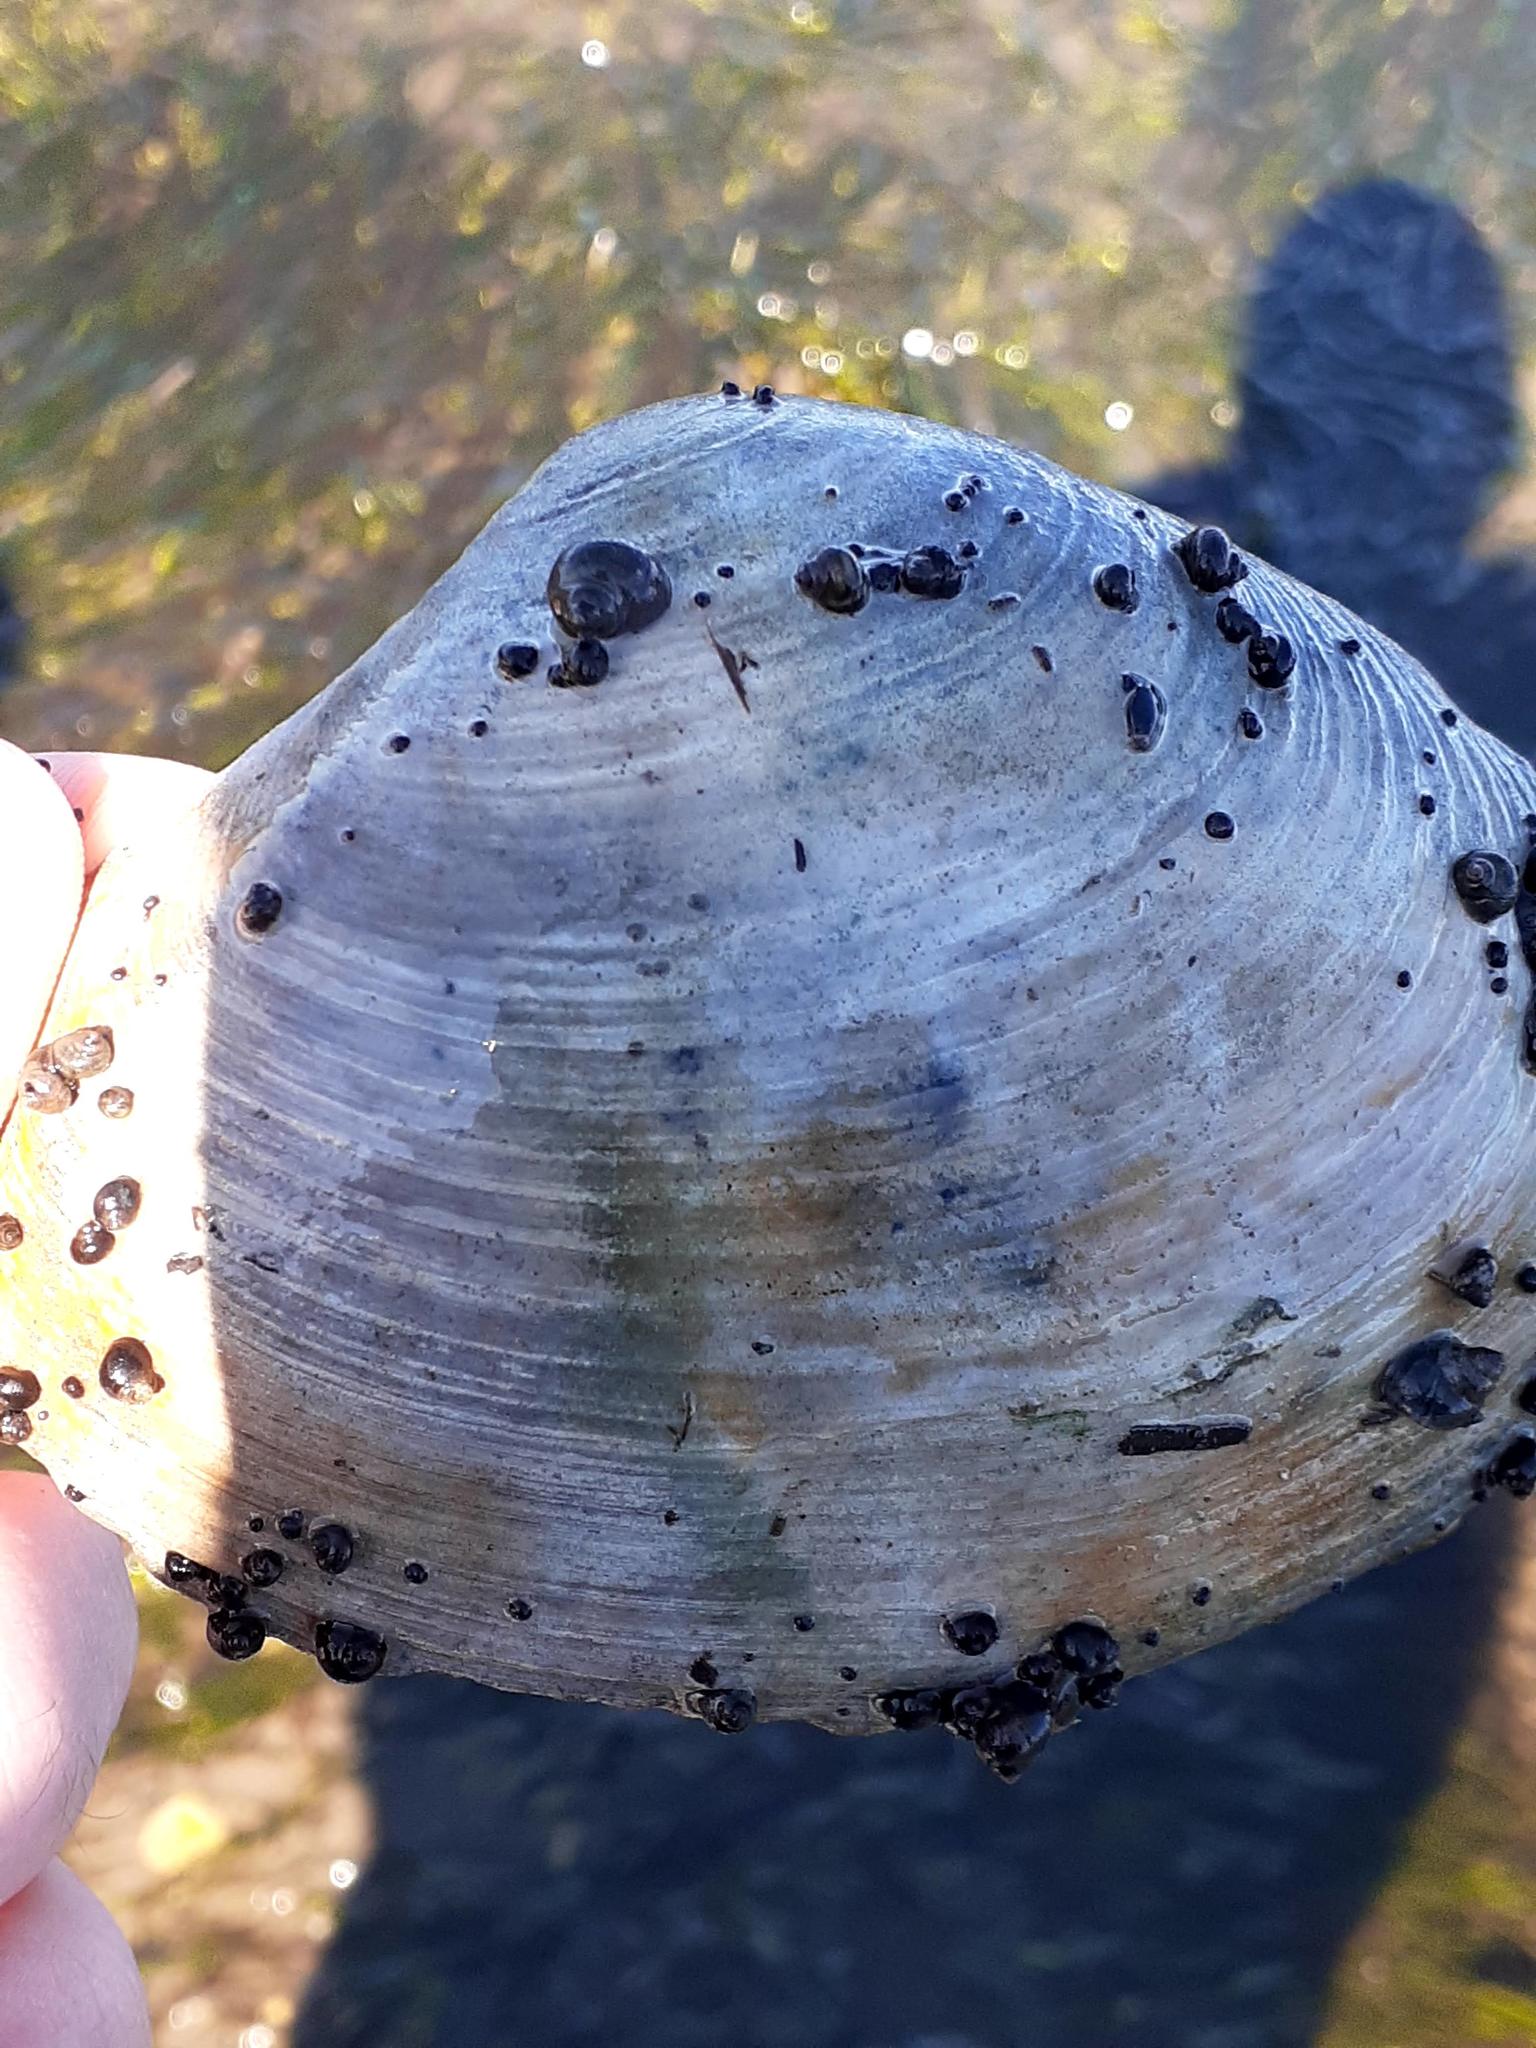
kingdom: Animalia
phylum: Mollusca
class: Bivalvia
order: Venerida
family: Mactridae
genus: Mactromeris
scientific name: Mactromeris polynyma
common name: Arctic surf clam
